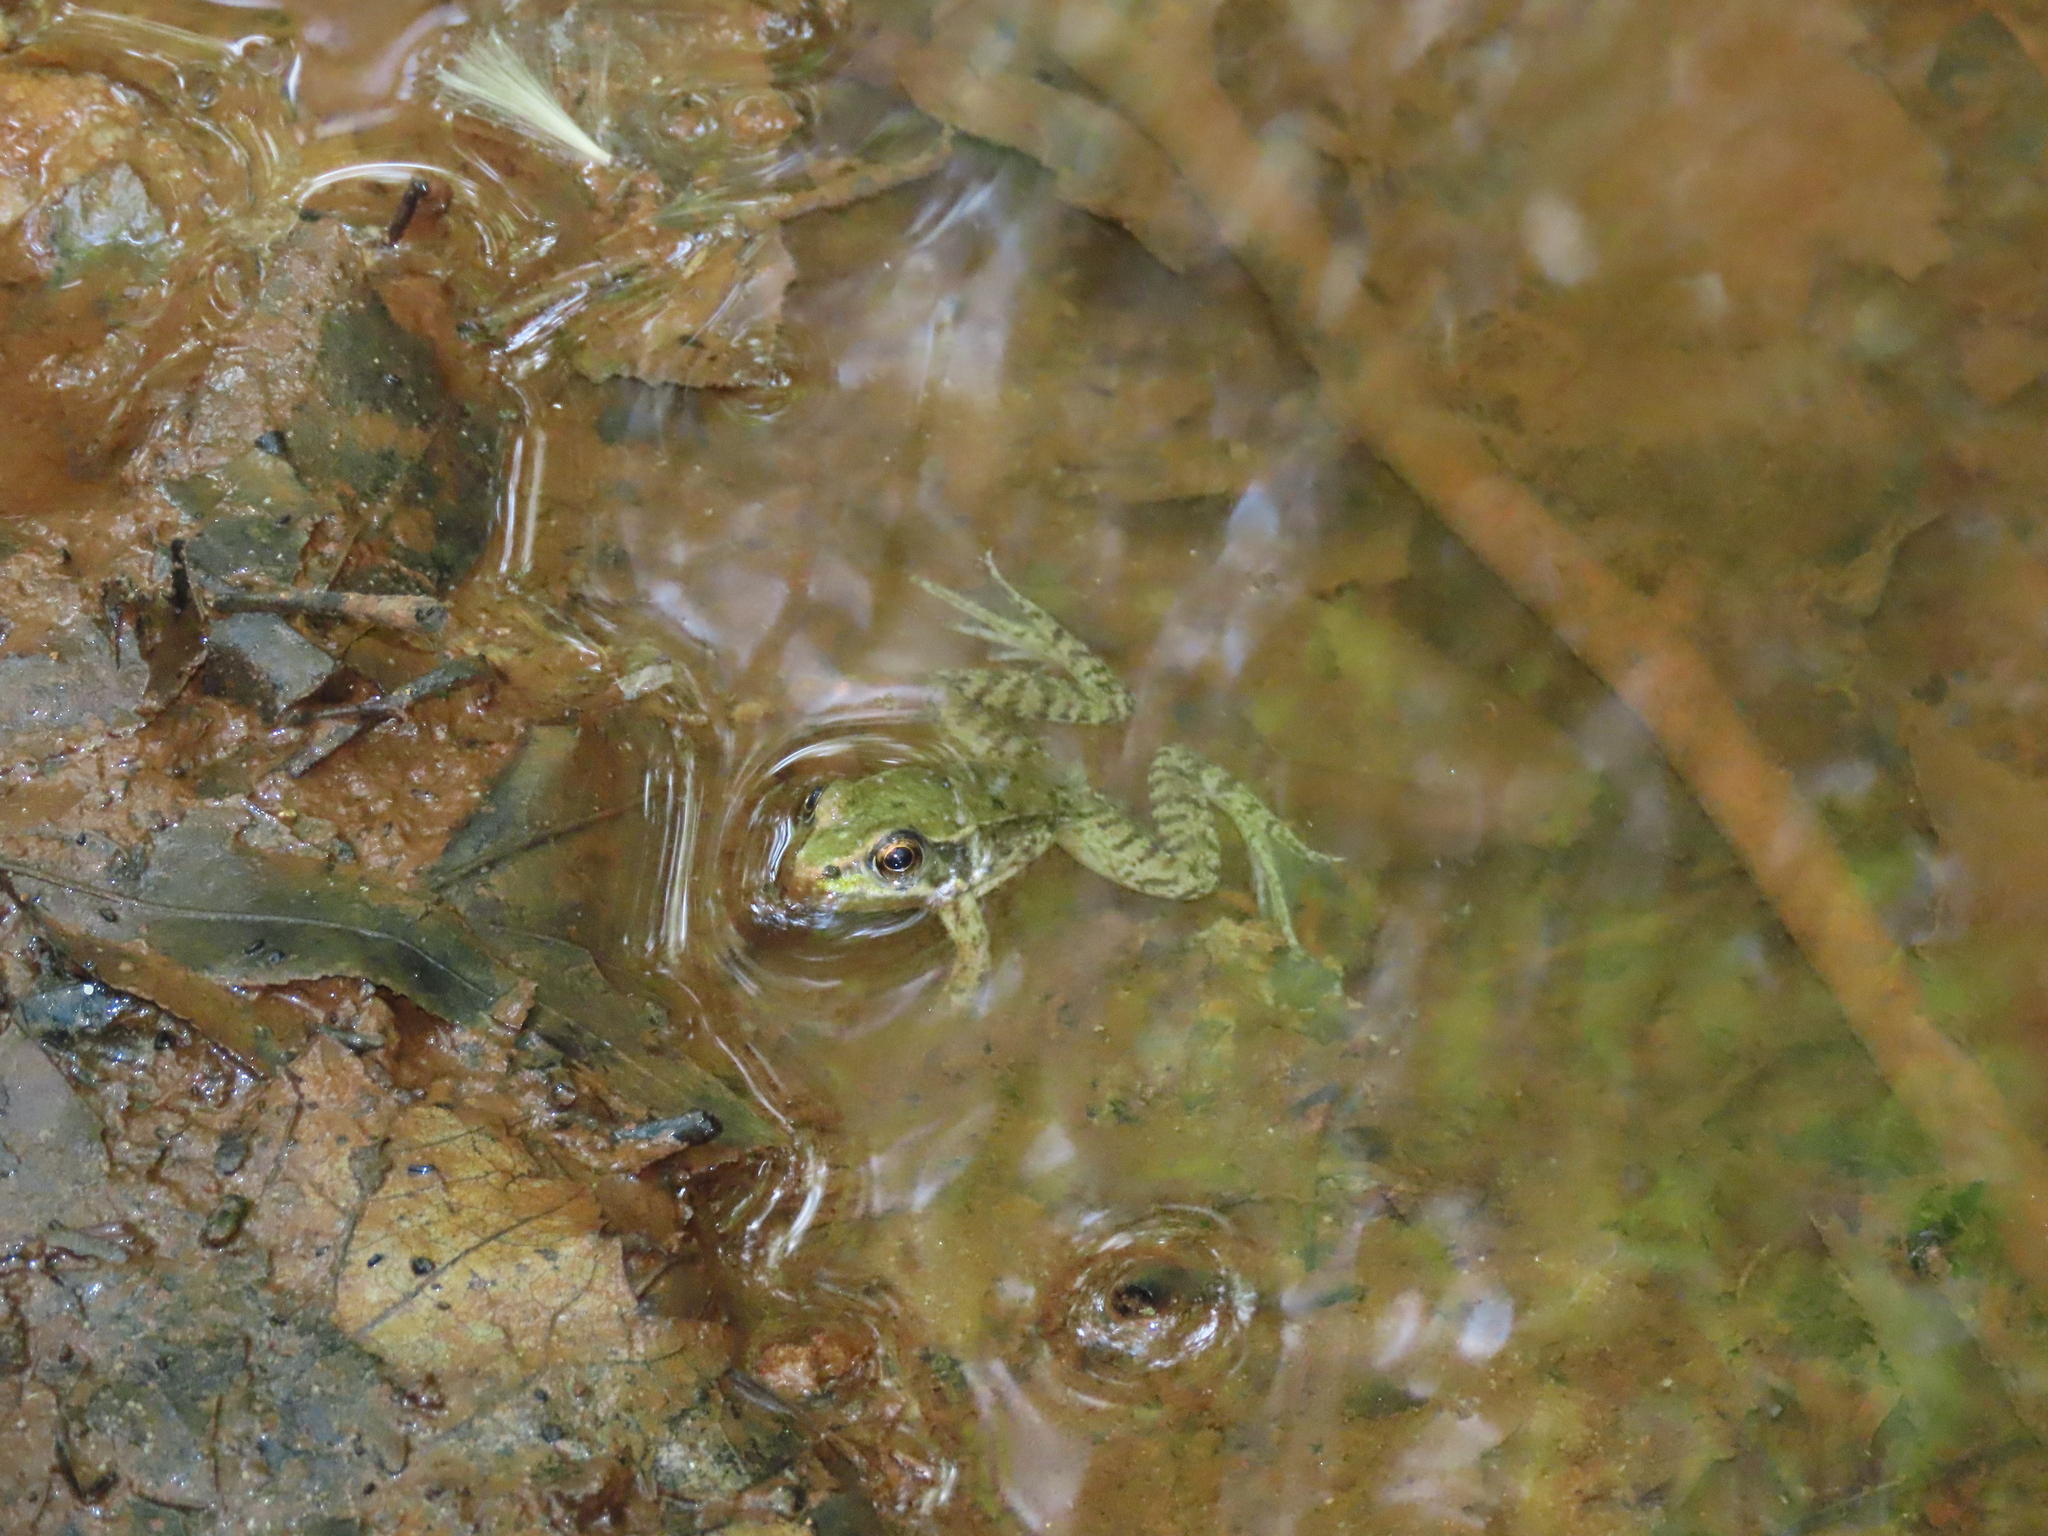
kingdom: Animalia
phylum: Chordata
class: Amphibia
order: Anura
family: Ranidae
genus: Lithobates
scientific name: Lithobates clamitans
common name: Green frog
